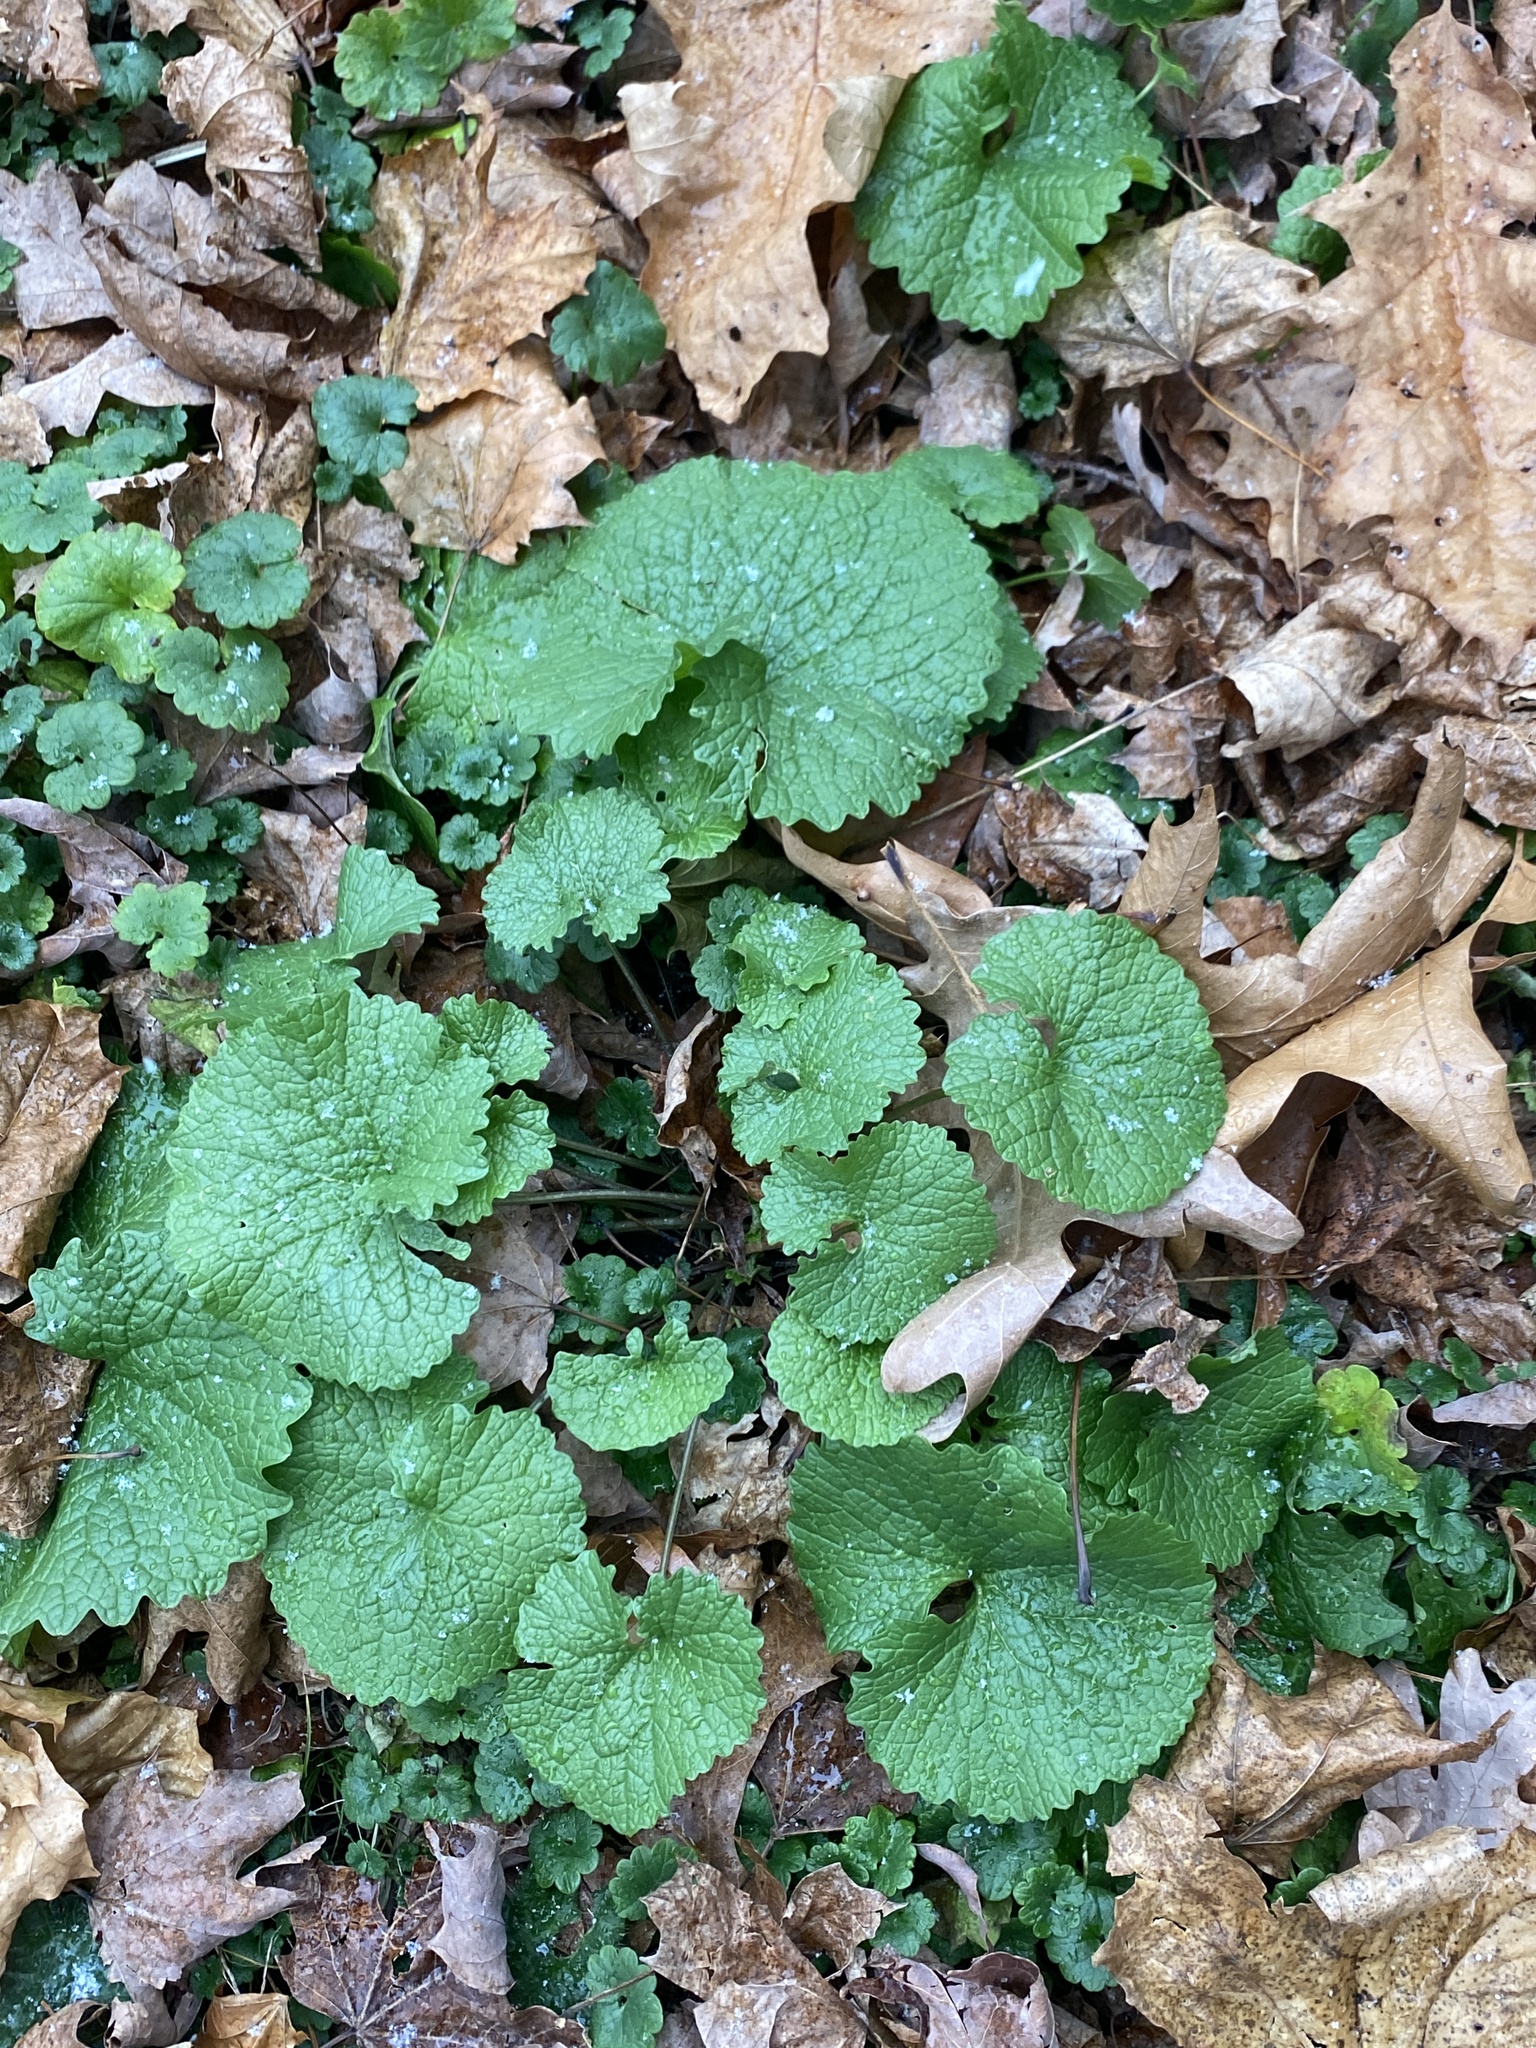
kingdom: Plantae
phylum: Tracheophyta
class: Magnoliopsida
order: Brassicales
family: Brassicaceae
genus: Alliaria
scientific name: Alliaria petiolata
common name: Garlic mustard
